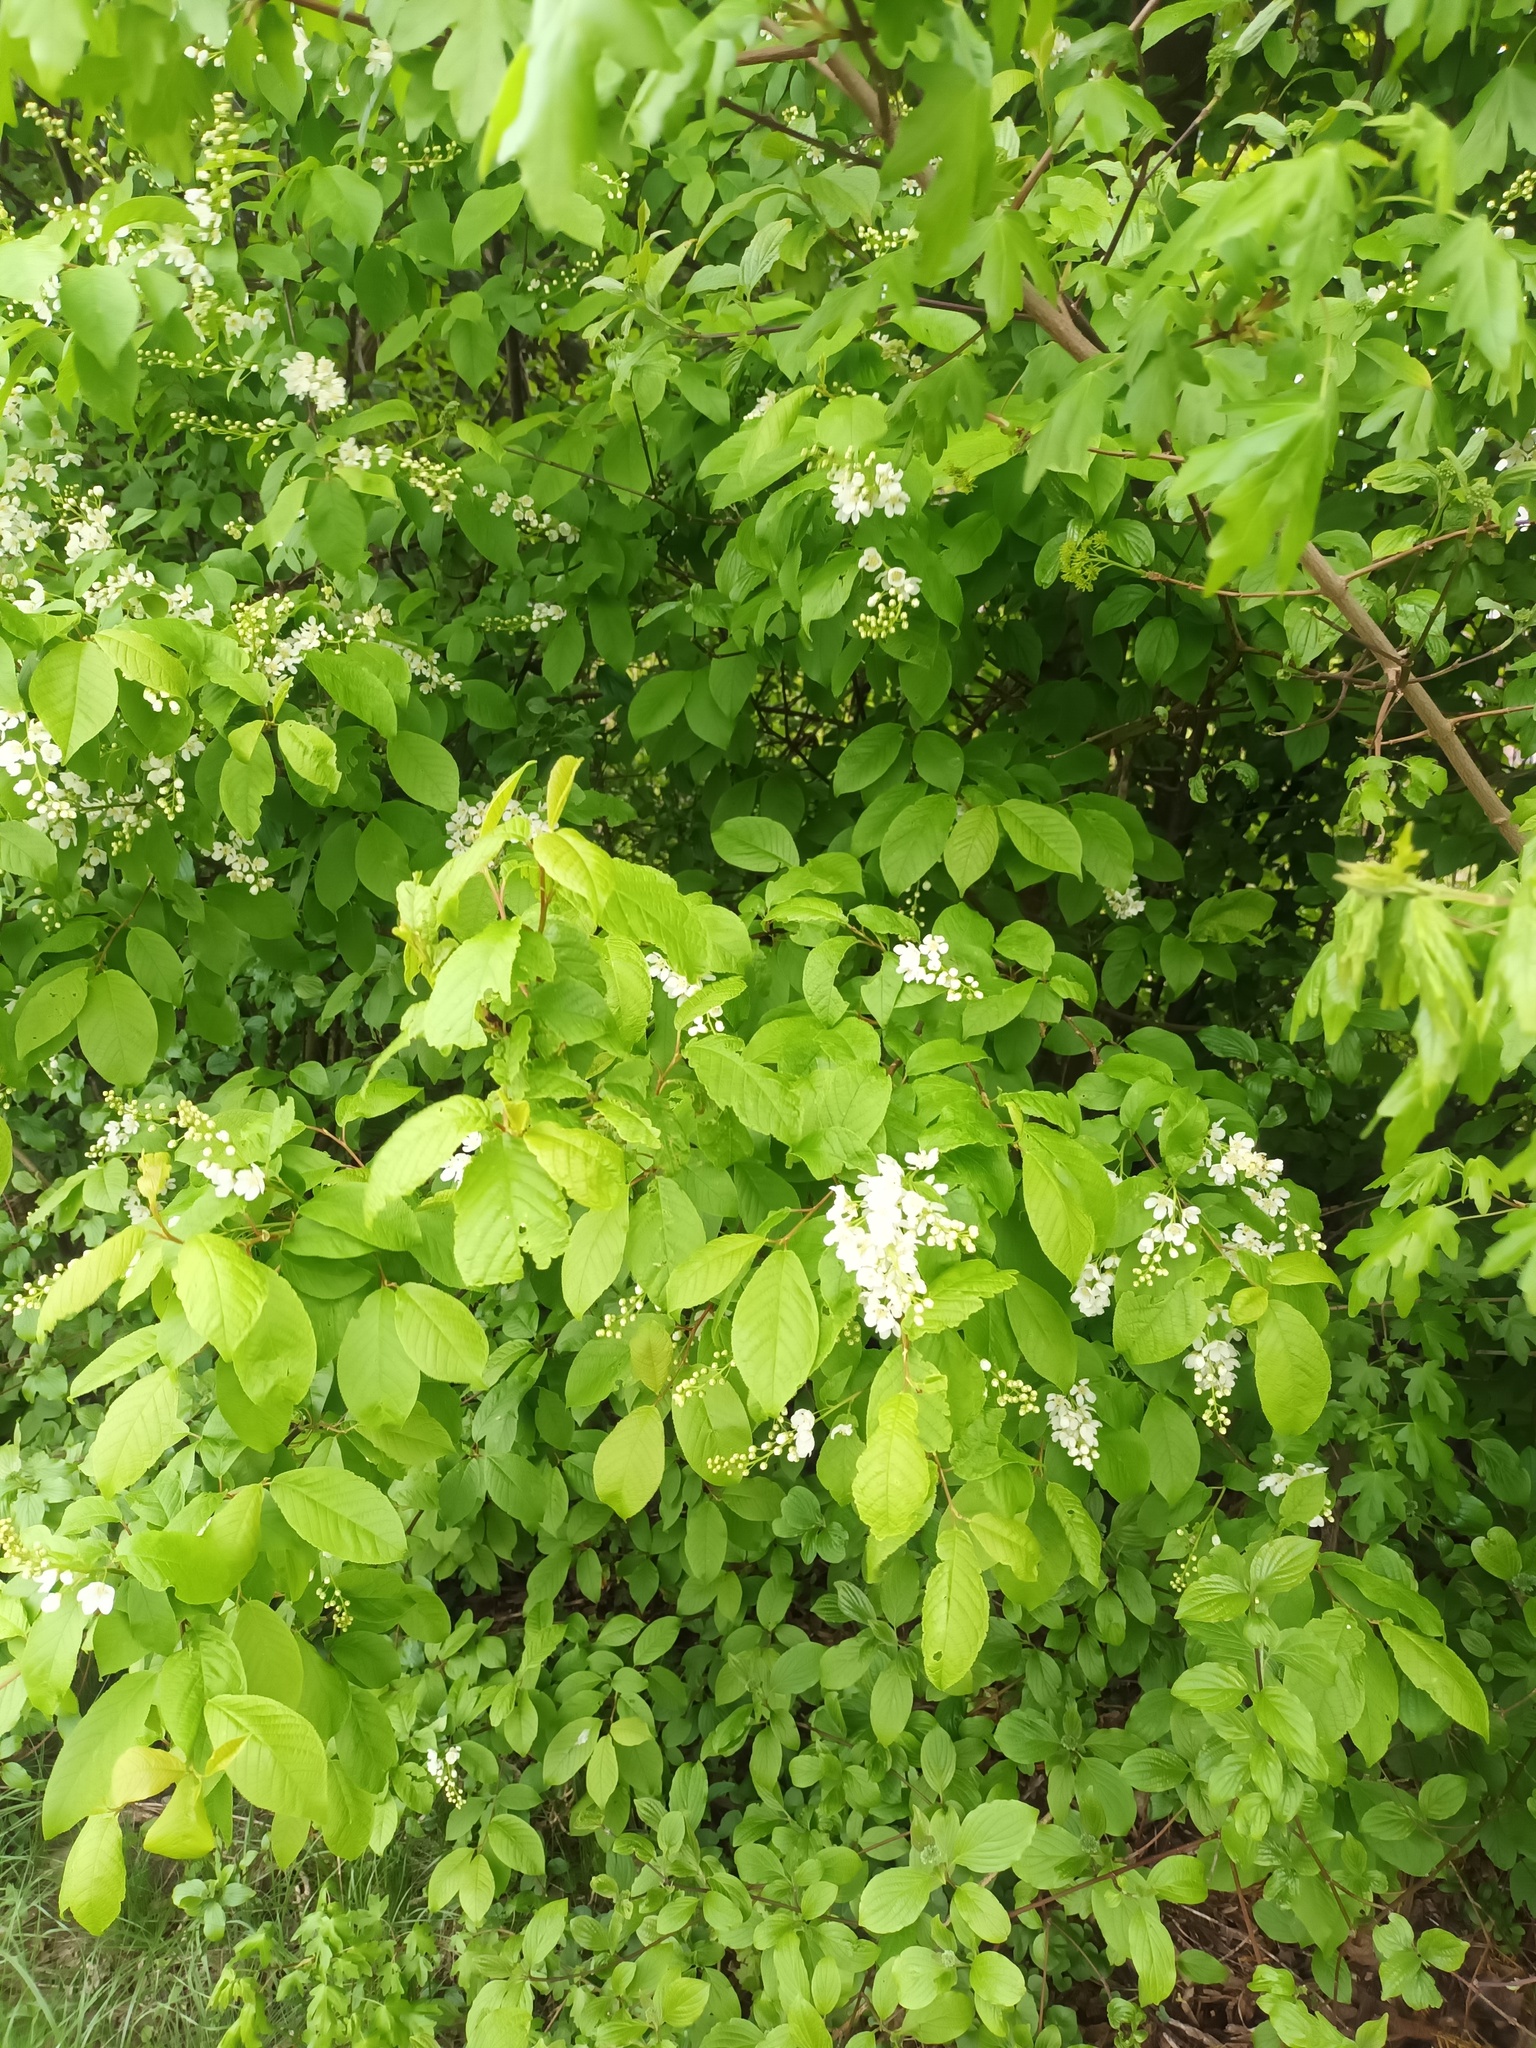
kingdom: Plantae
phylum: Tracheophyta
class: Magnoliopsida
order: Rosales
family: Rosaceae
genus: Prunus
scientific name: Prunus padus
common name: Bird cherry
